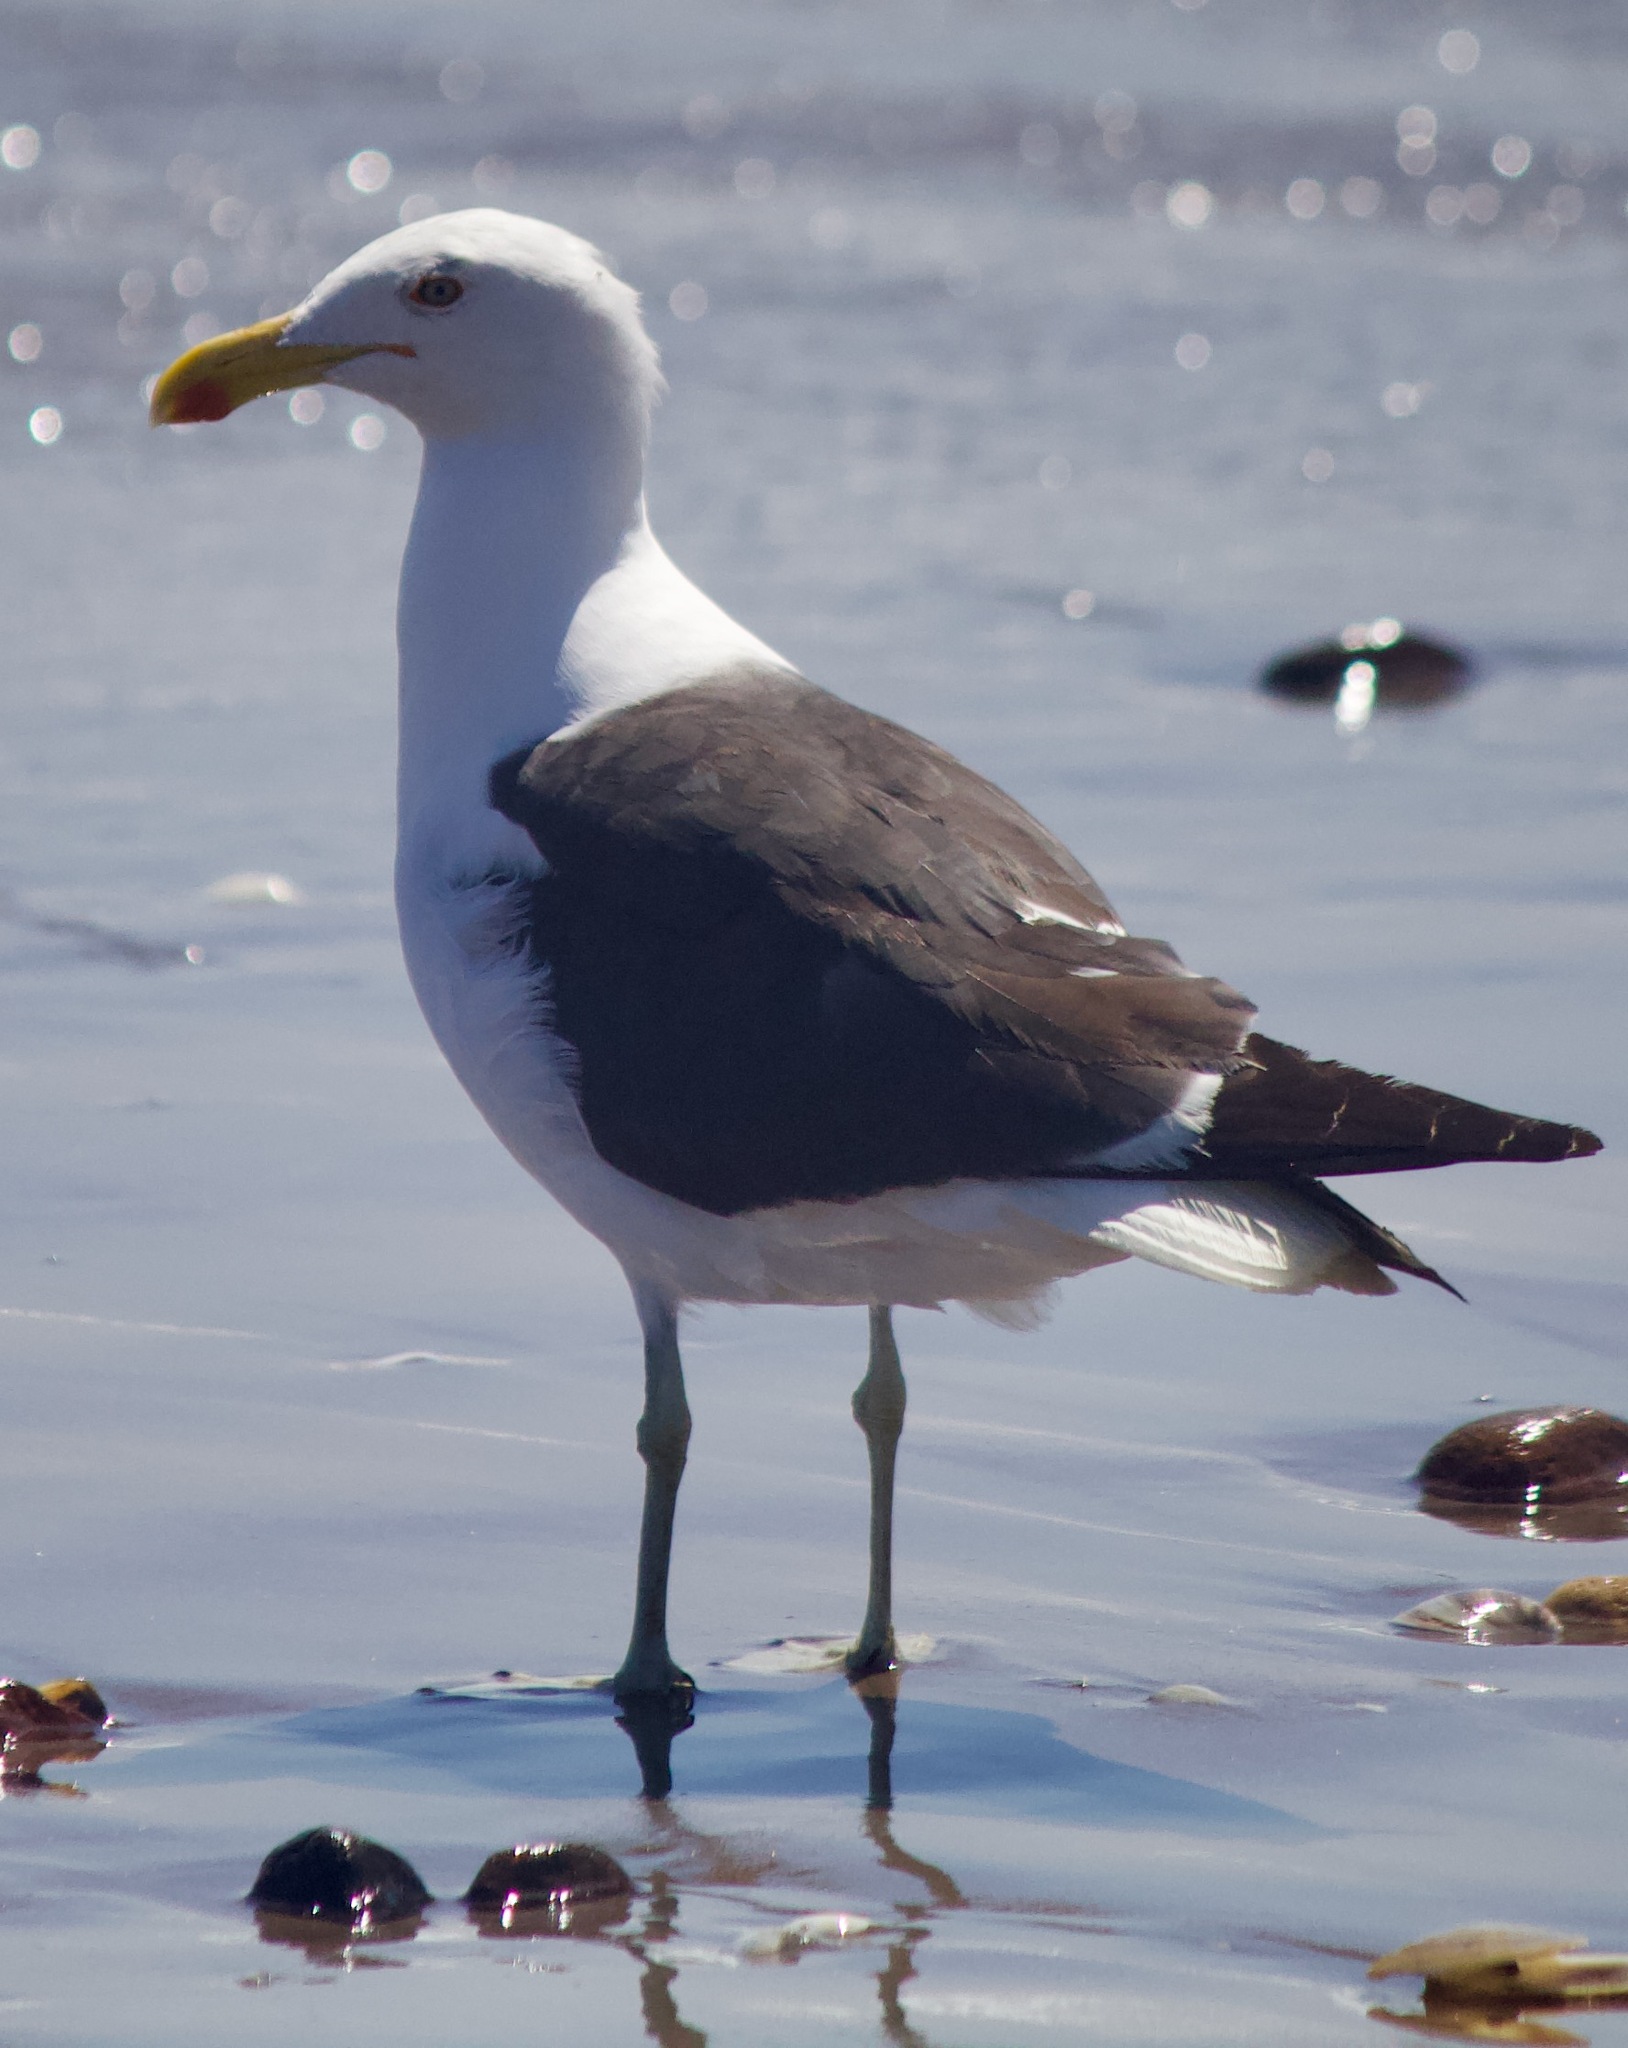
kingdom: Animalia
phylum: Chordata
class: Aves
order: Charadriiformes
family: Laridae
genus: Larus
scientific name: Larus dominicanus
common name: Kelp gull
